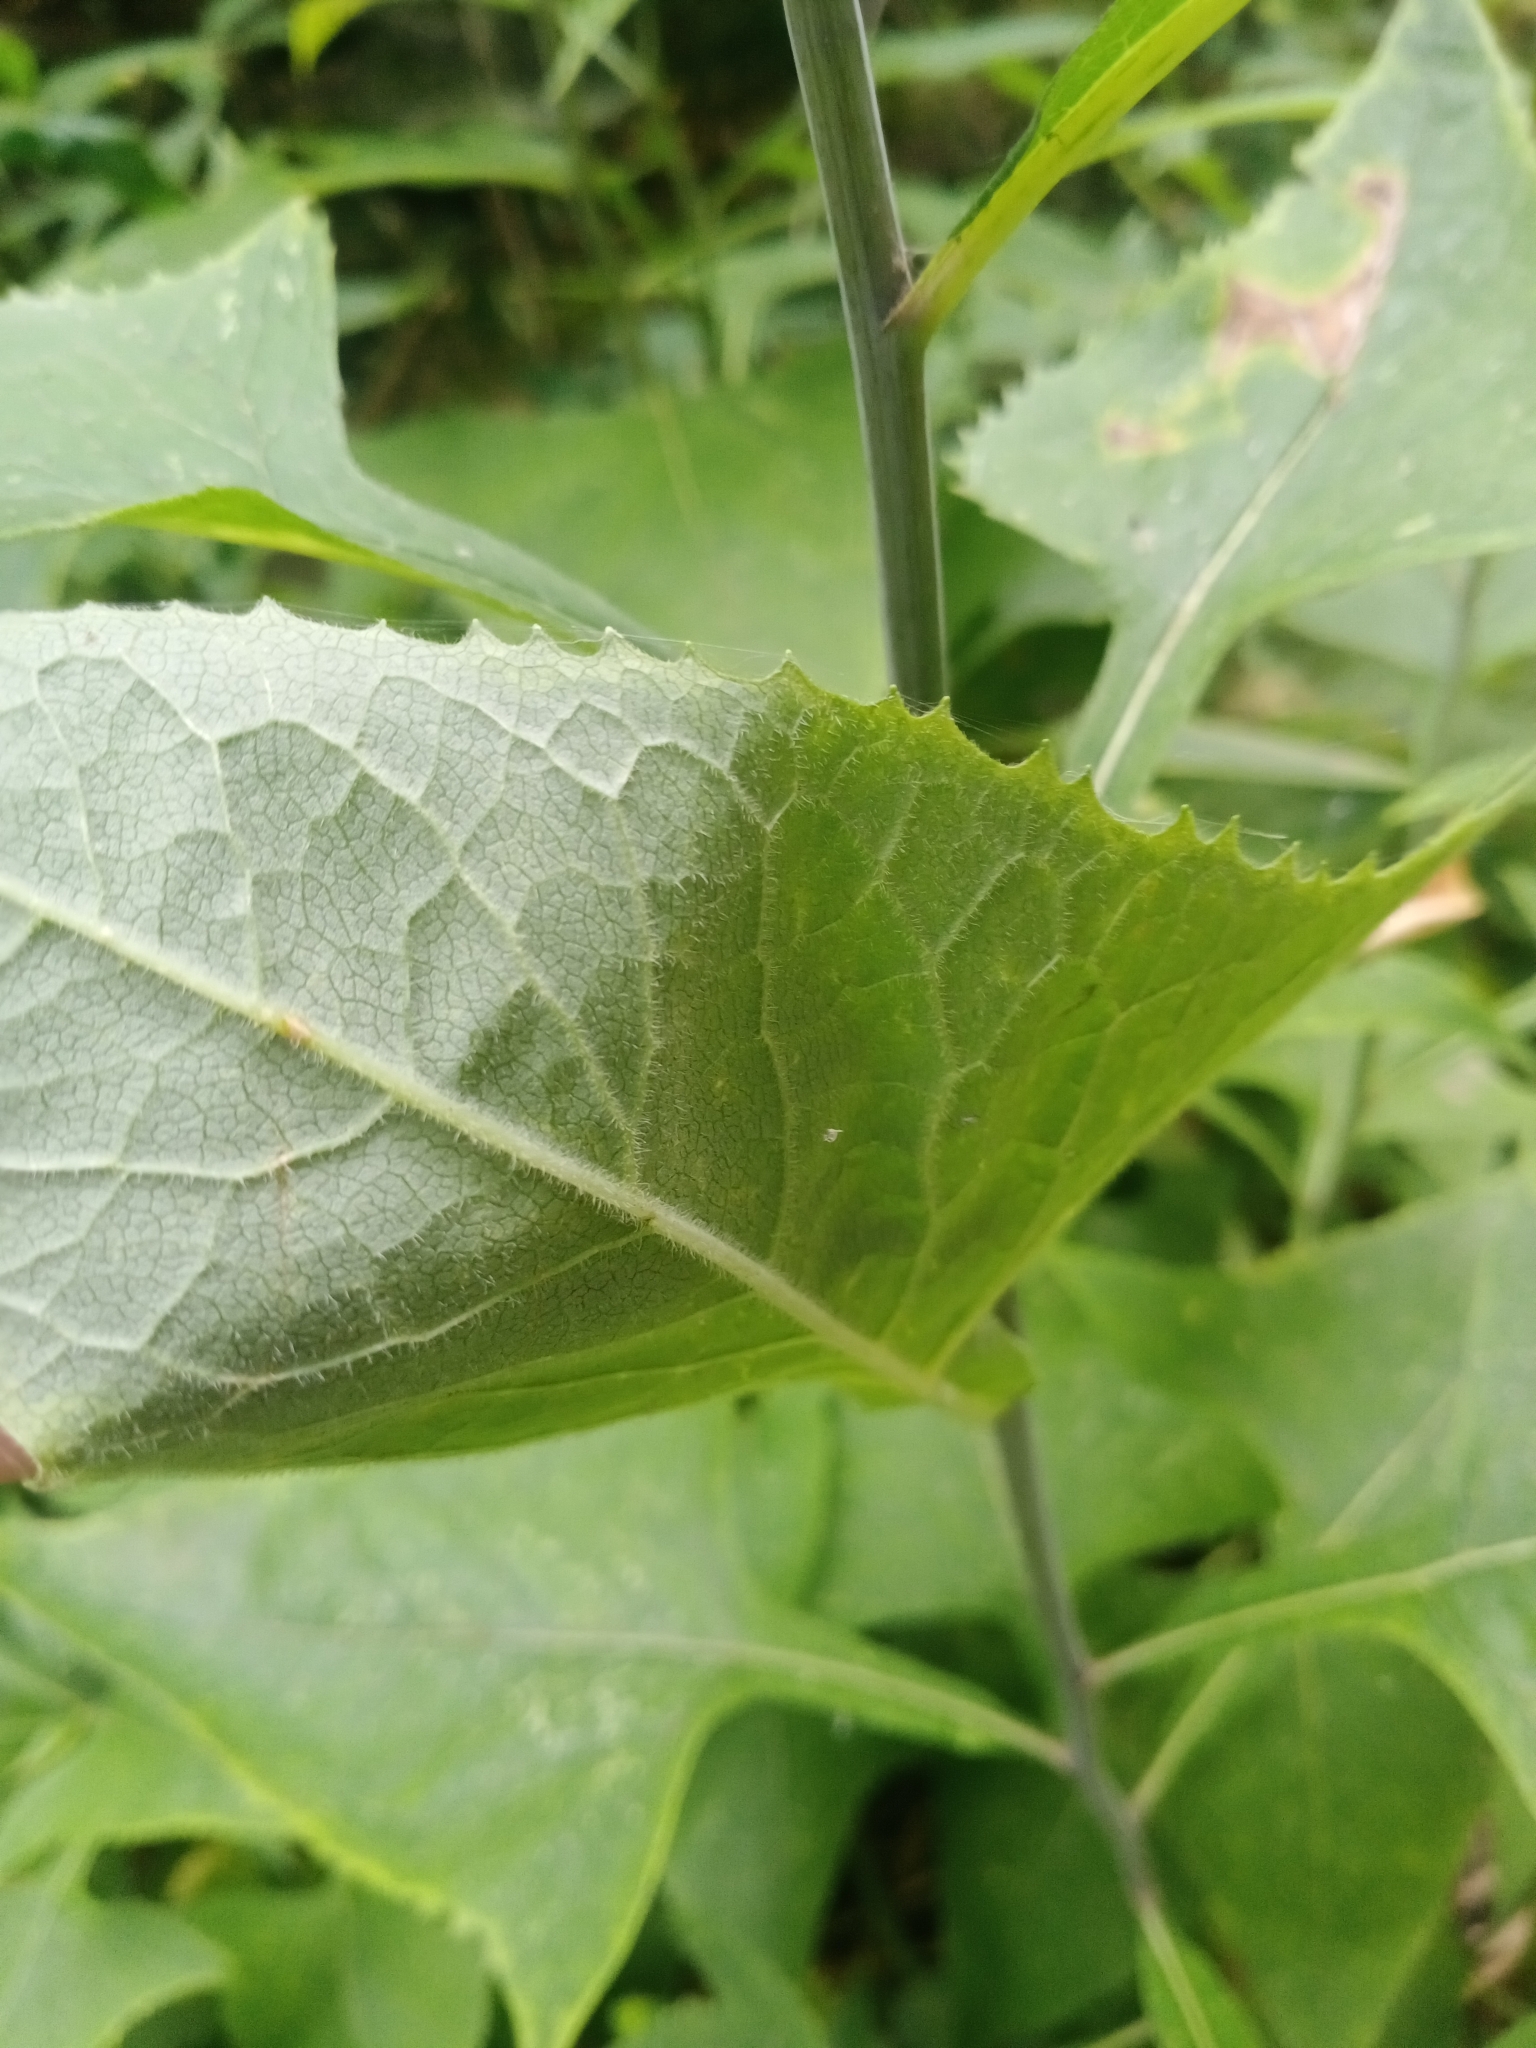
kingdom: Plantae
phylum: Tracheophyta
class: Magnoliopsida
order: Asterales
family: Asteraceae
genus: Parasenecio
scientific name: Parasenecio hastatus
